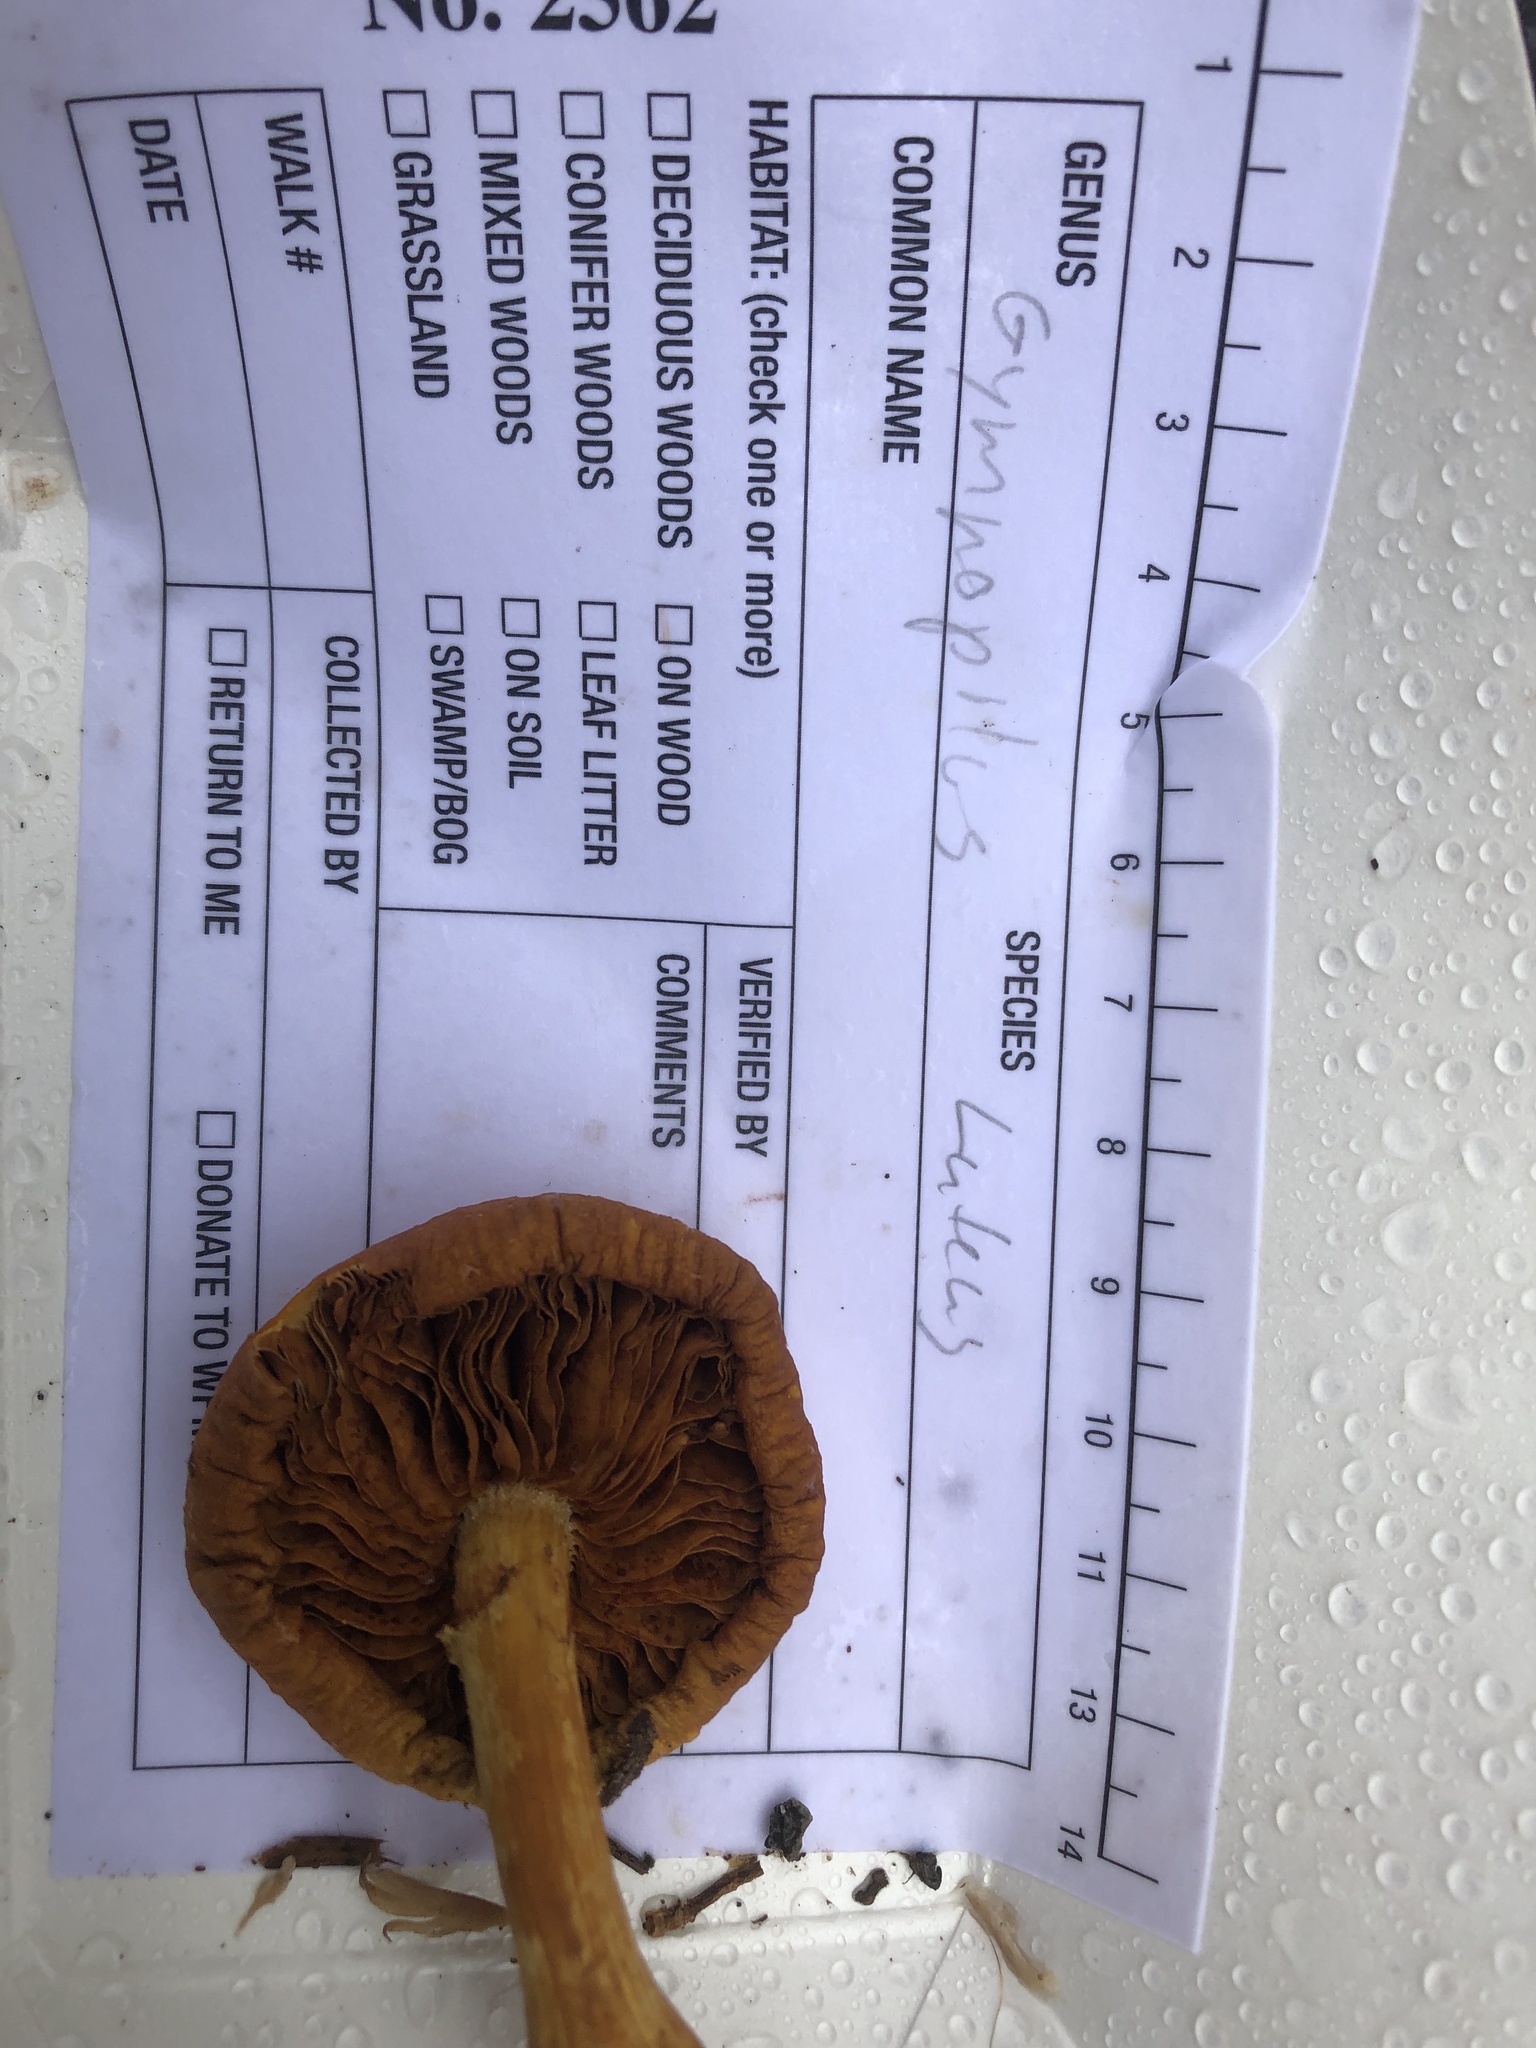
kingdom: Fungi
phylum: Basidiomycota
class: Agaricomycetes
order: Agaricales
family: Hymenogastraceae
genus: Gymnopilus
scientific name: Gymnopilus luteus
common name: Yellow gymnopilus
